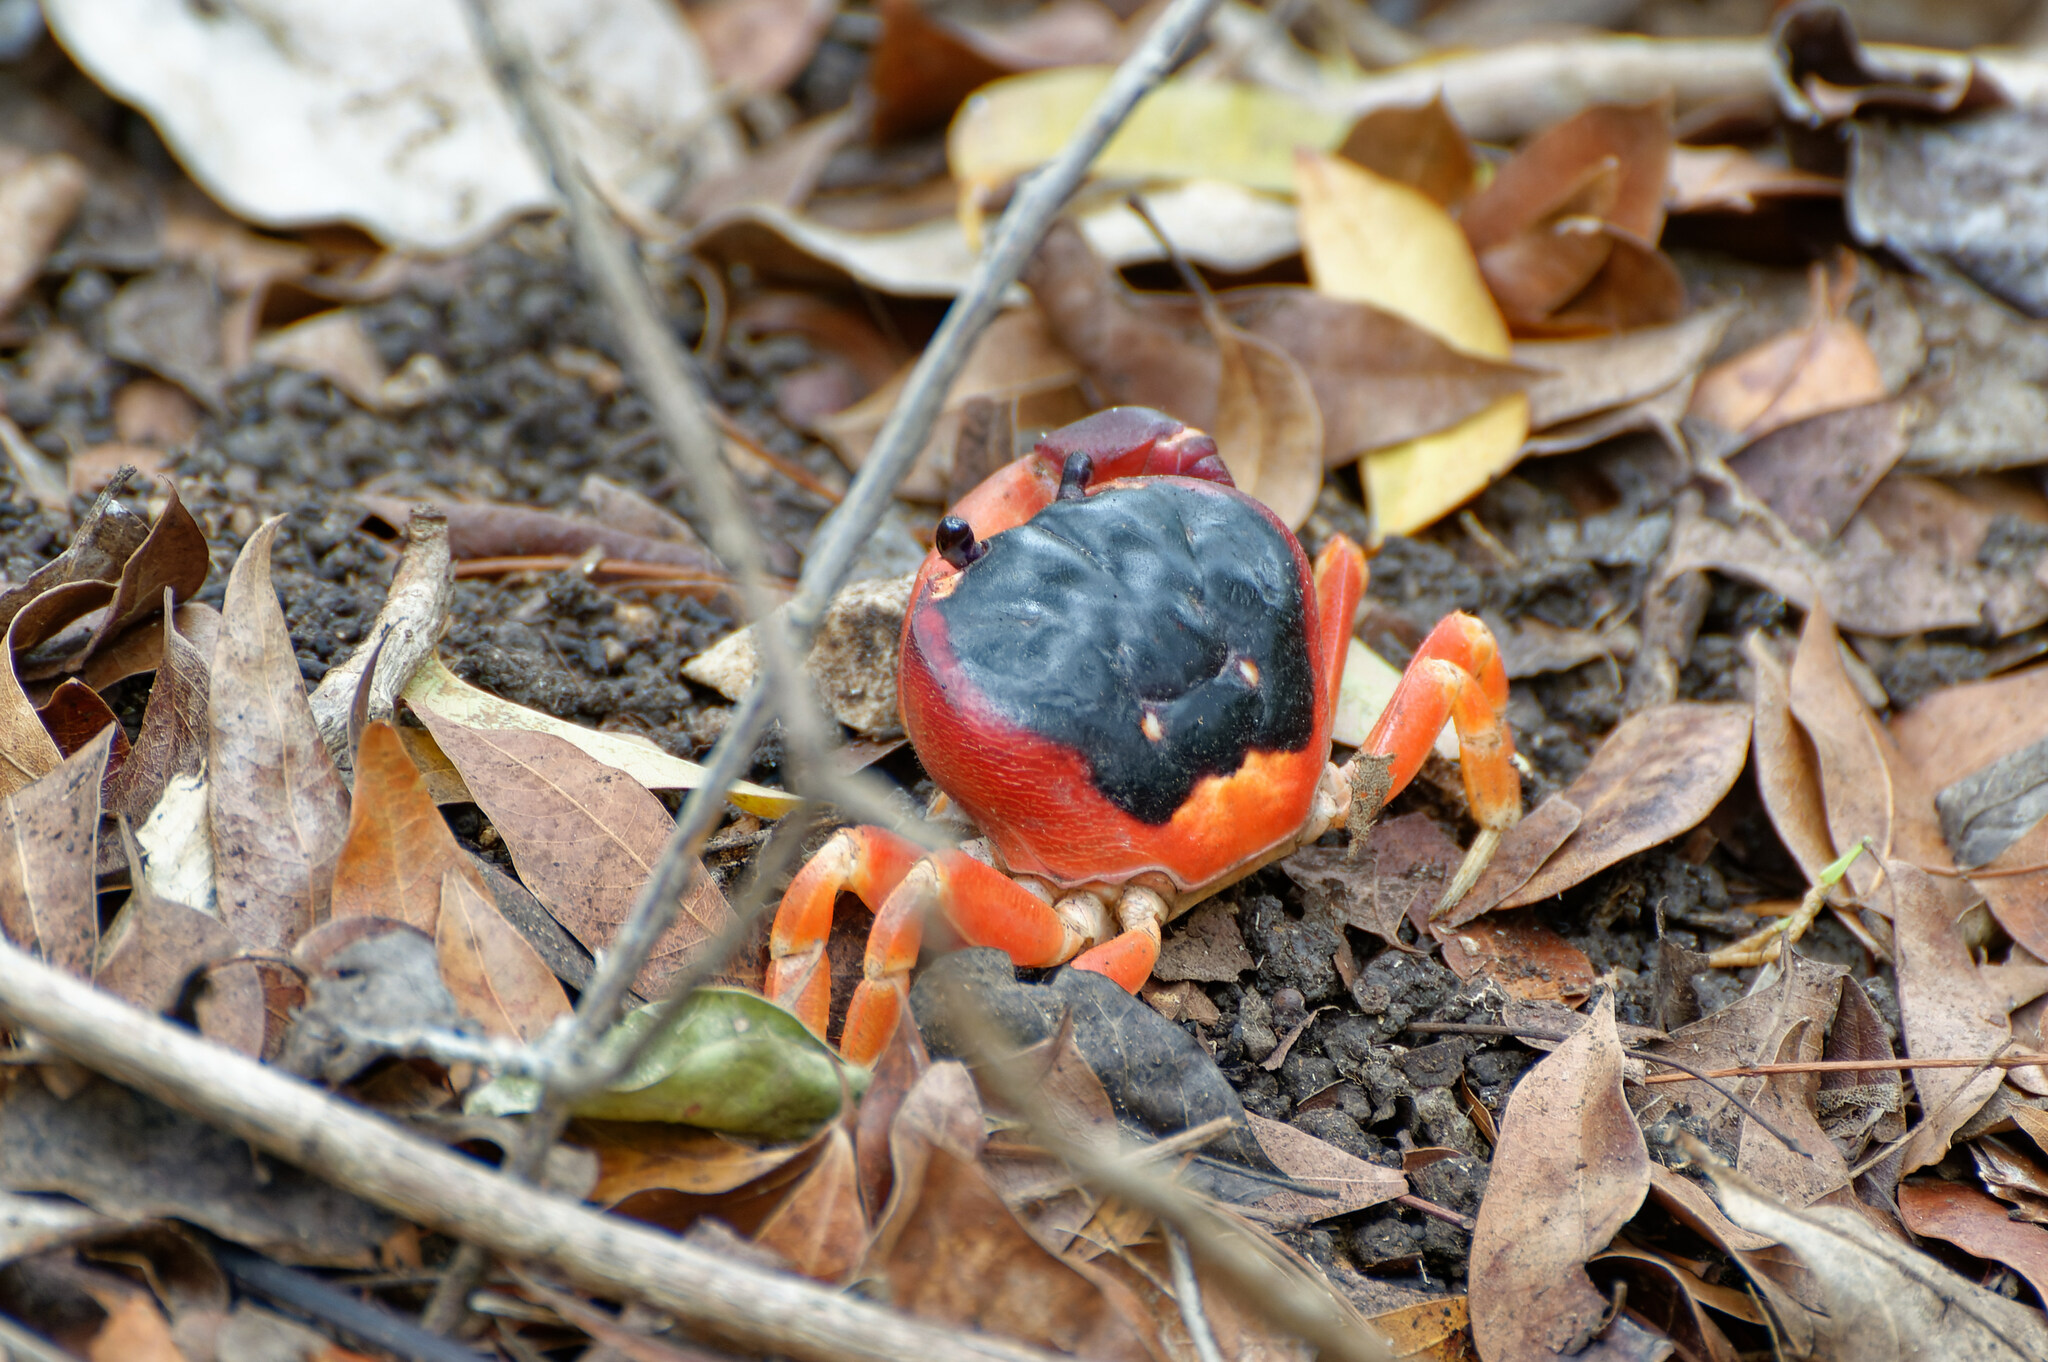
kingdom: Animalia
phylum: Arthropoda
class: Malacostraca
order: Decapoda
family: Gecarcinidae
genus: Gecarcinus
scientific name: Gecarcinus lateralis
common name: Bermuda land crab
